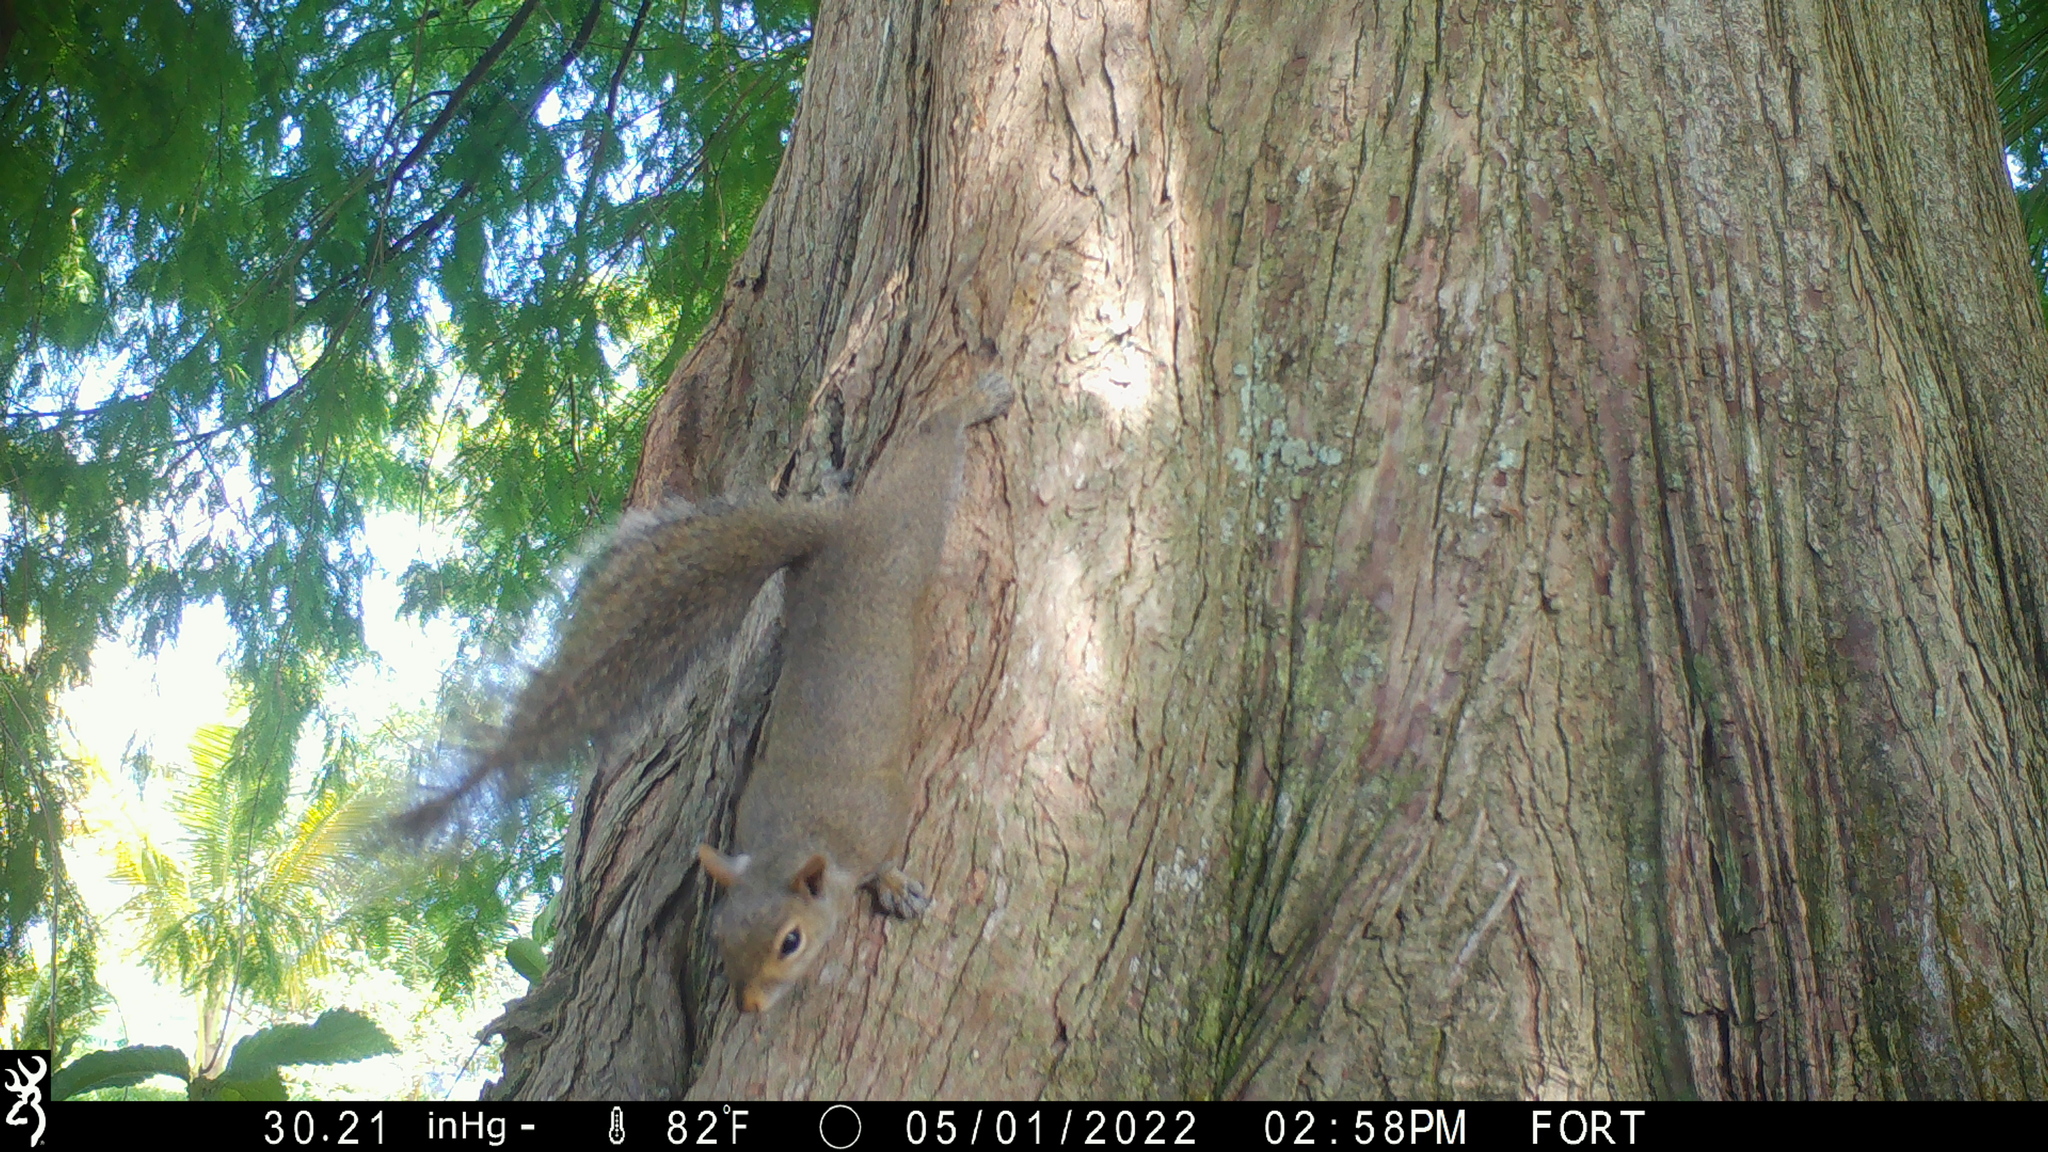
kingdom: Animalia
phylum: Chordata
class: Mammalia
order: Rodentia
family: Sciuridae
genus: Sciurus
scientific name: Sciurus carolinensis
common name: Eastern gray squirrel
